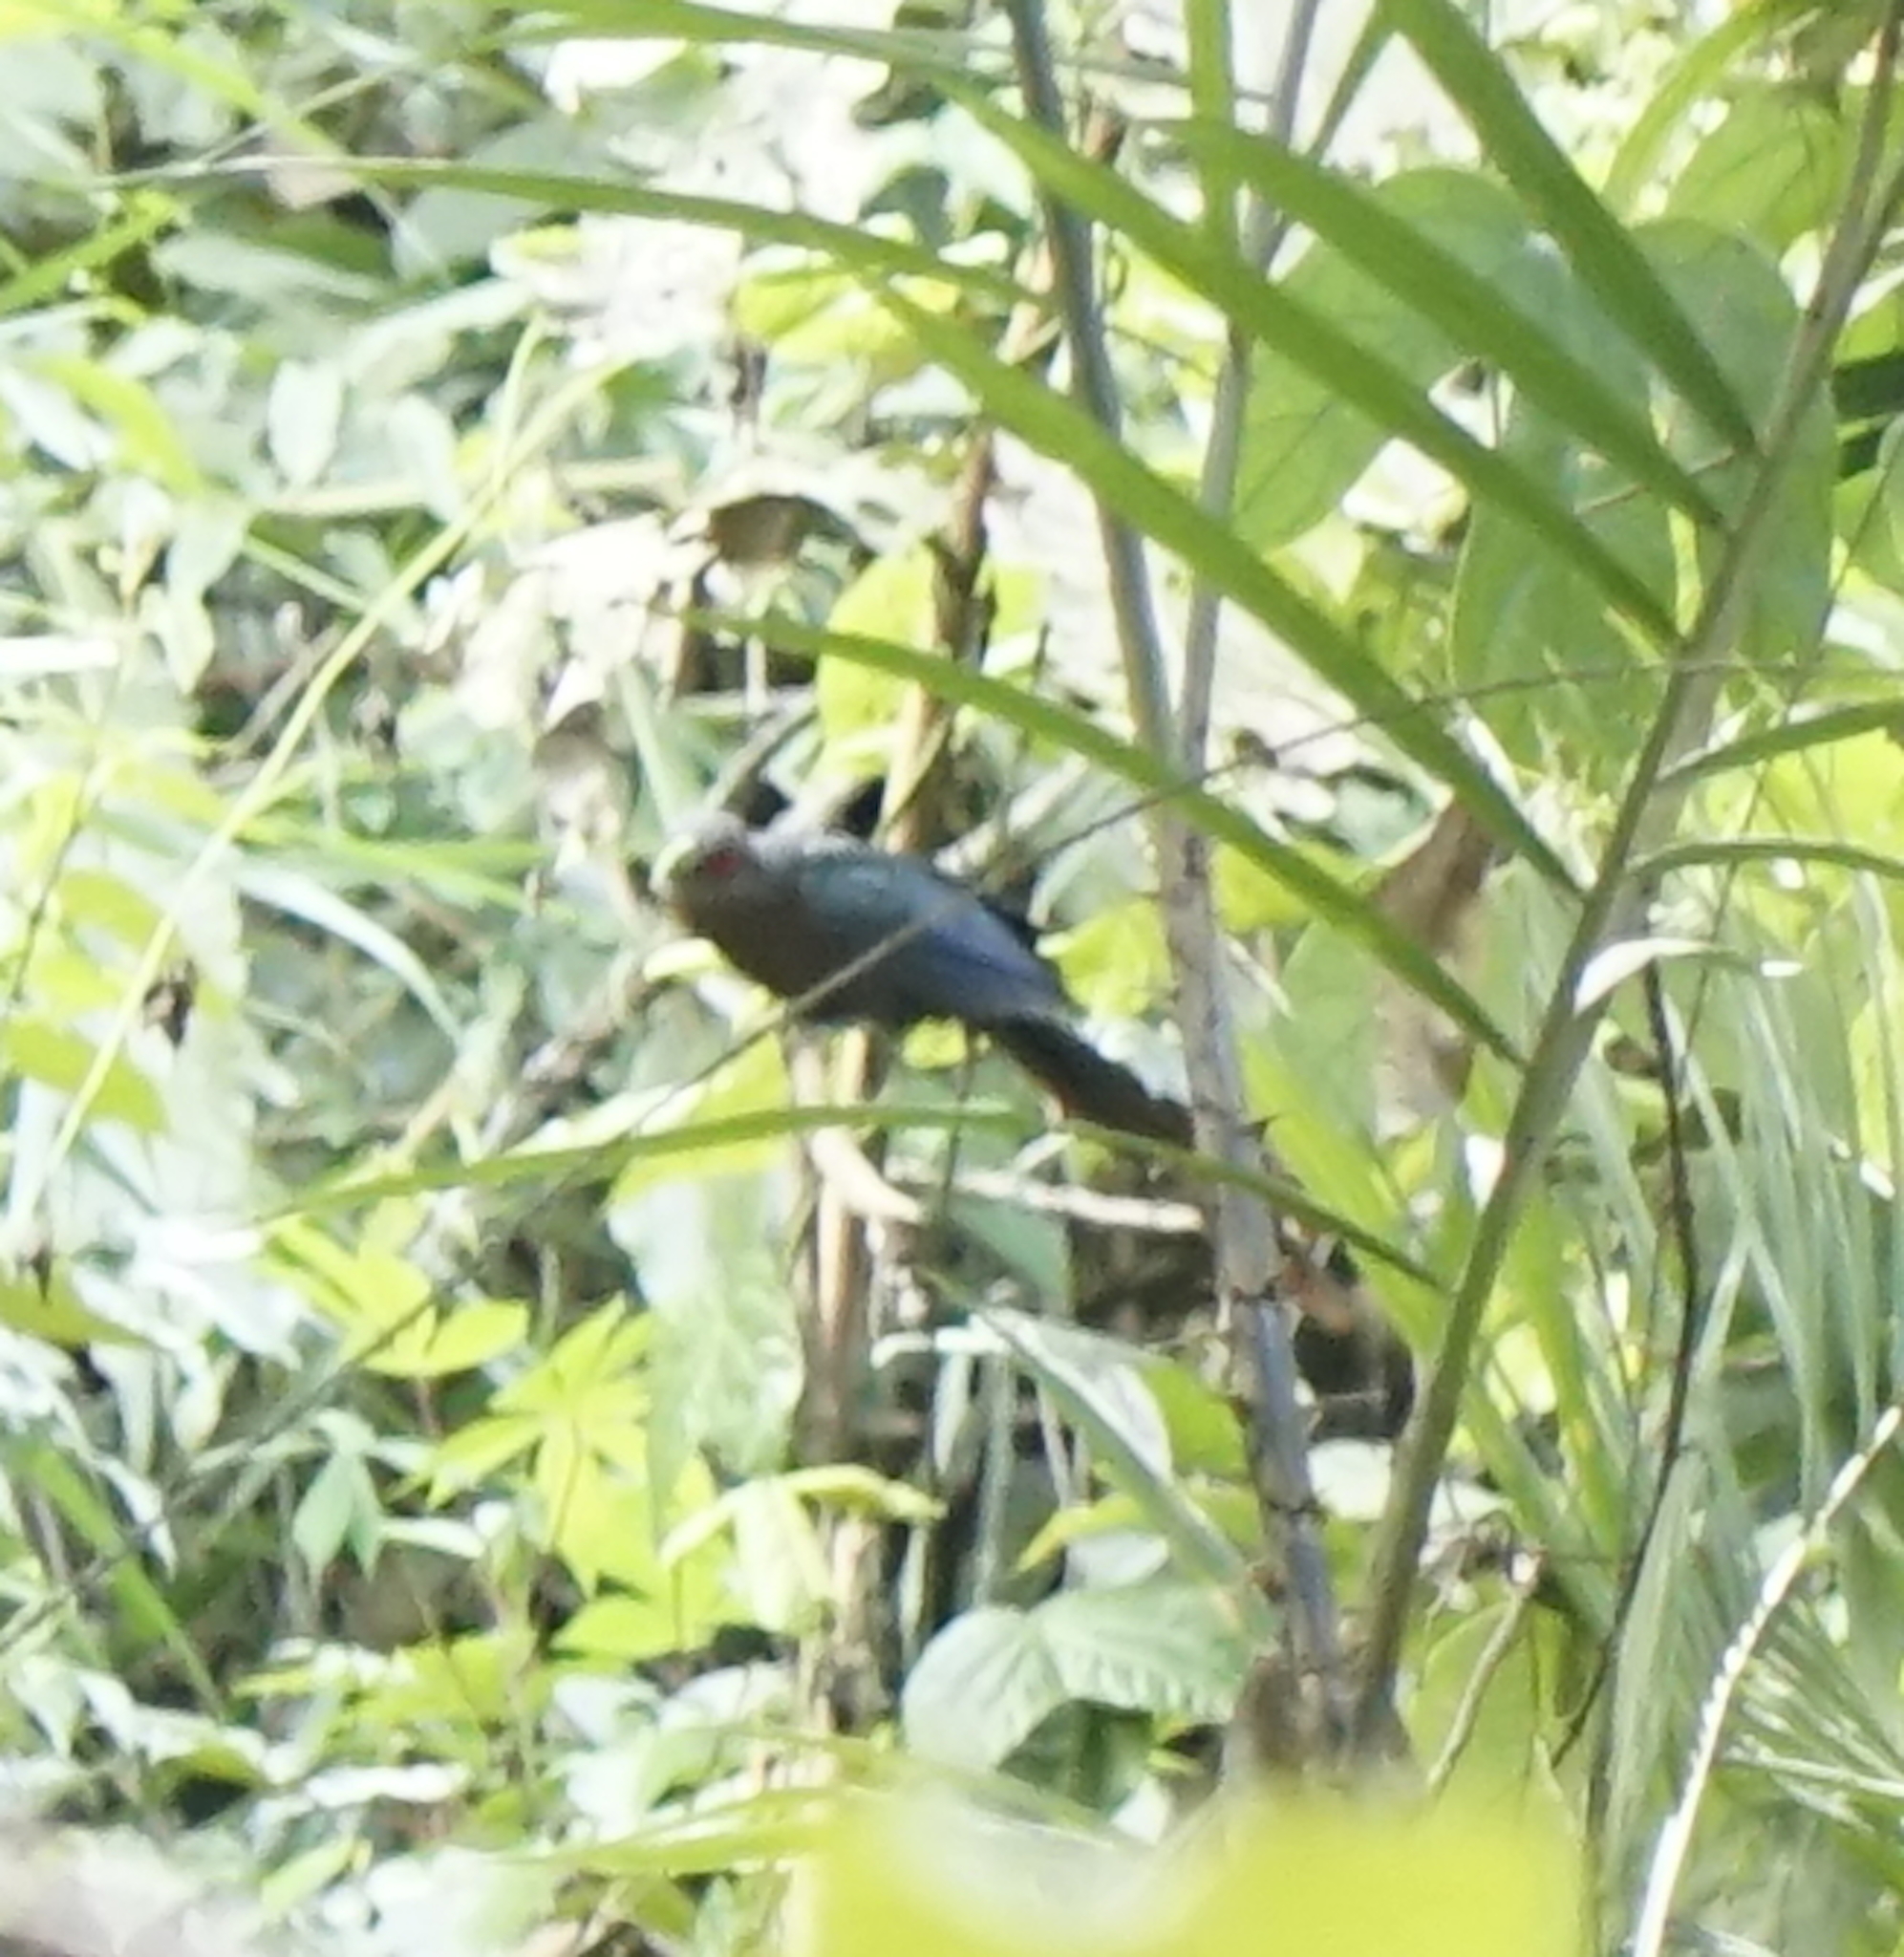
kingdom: Animalia
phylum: Chordata
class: Aves
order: Cuculiformes
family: Cuculidae
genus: Zanclostomus
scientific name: Zanclostomus curvirostris
